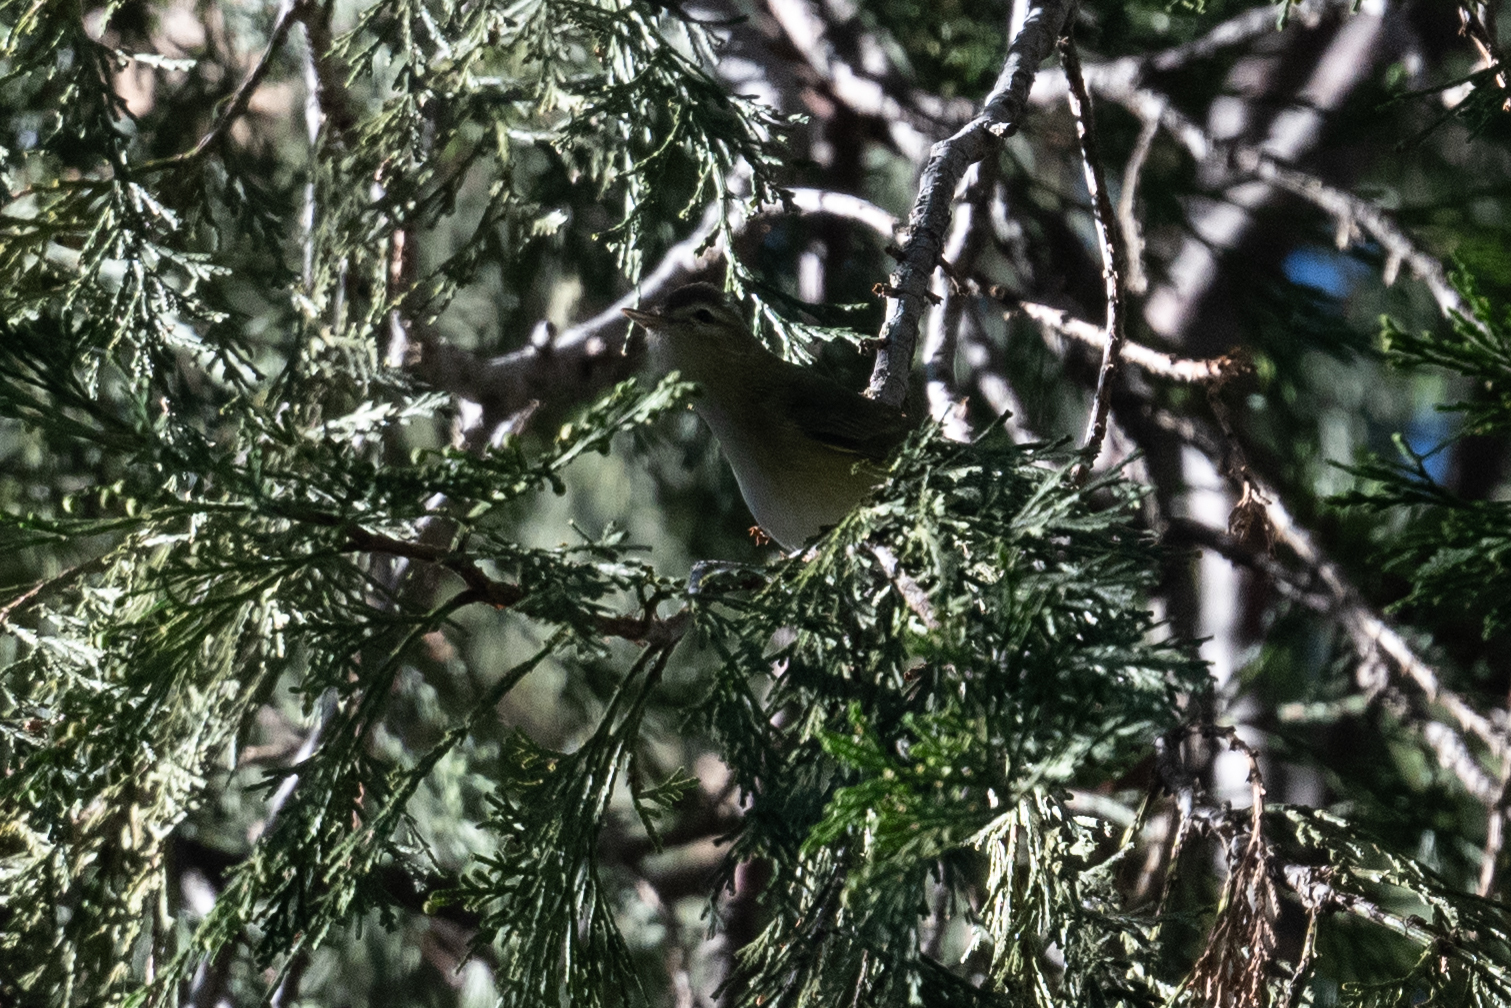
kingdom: Animalia
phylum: Chordata
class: Aves
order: Passeriformes
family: Vireonidae
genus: Vireo
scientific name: Vireo gilvus
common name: Warbling vireo
